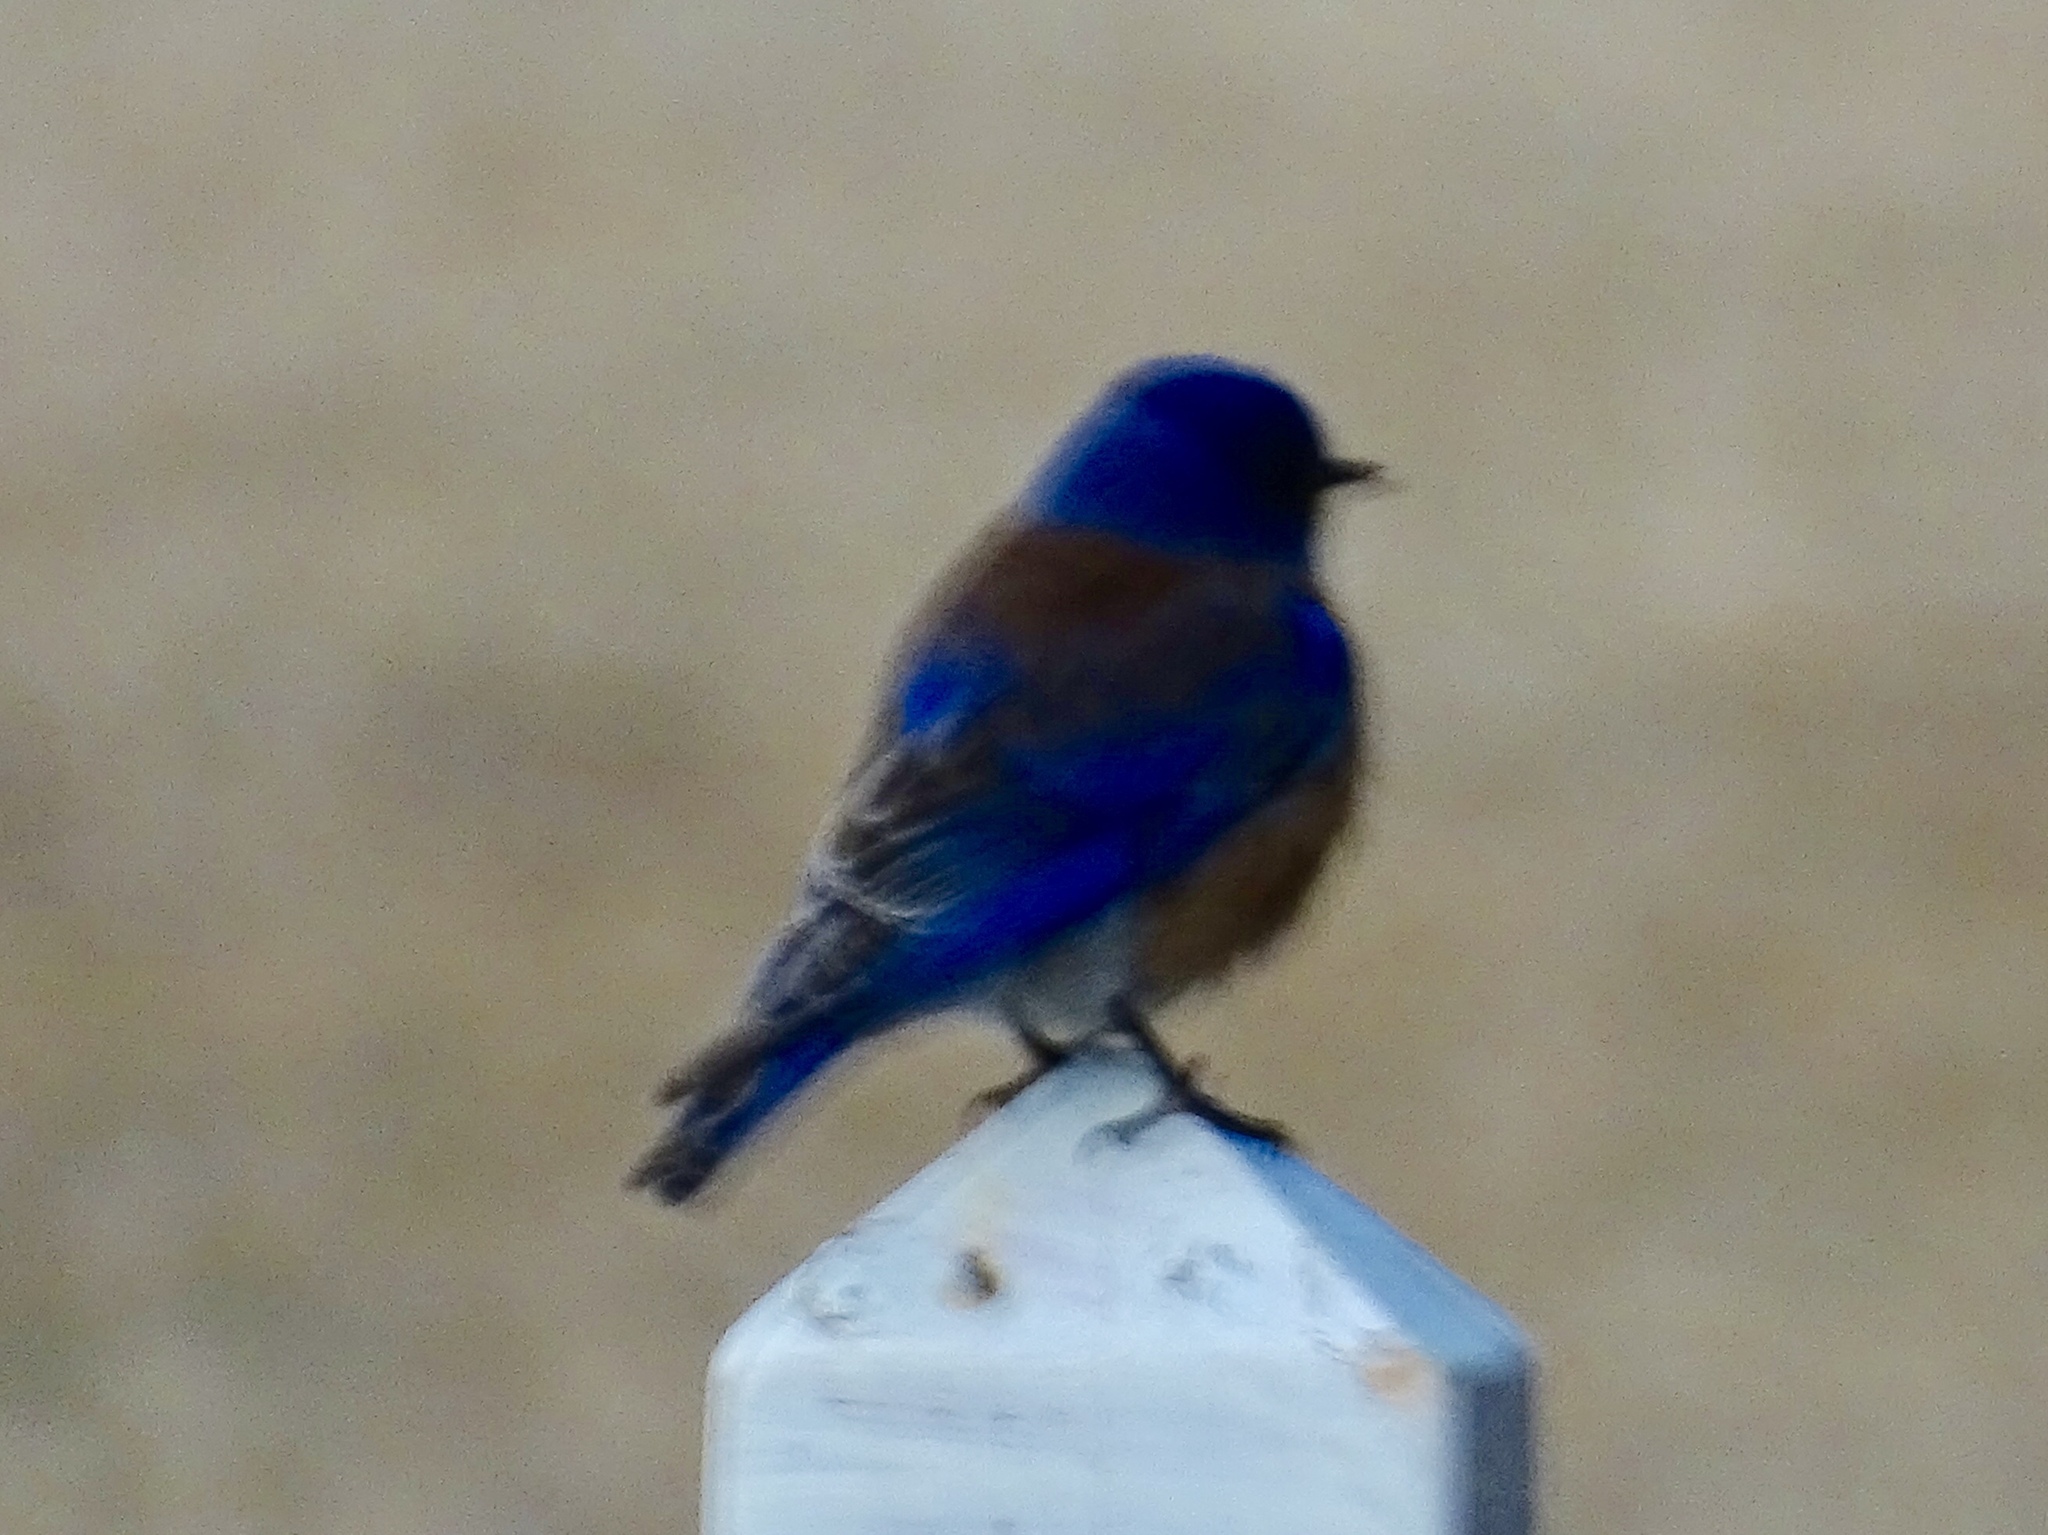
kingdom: Animalia
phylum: Chordata
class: Aves
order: Passeriformes
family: Turdidae
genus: Sialia
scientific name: Sialia mexicana
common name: Western bluebird
